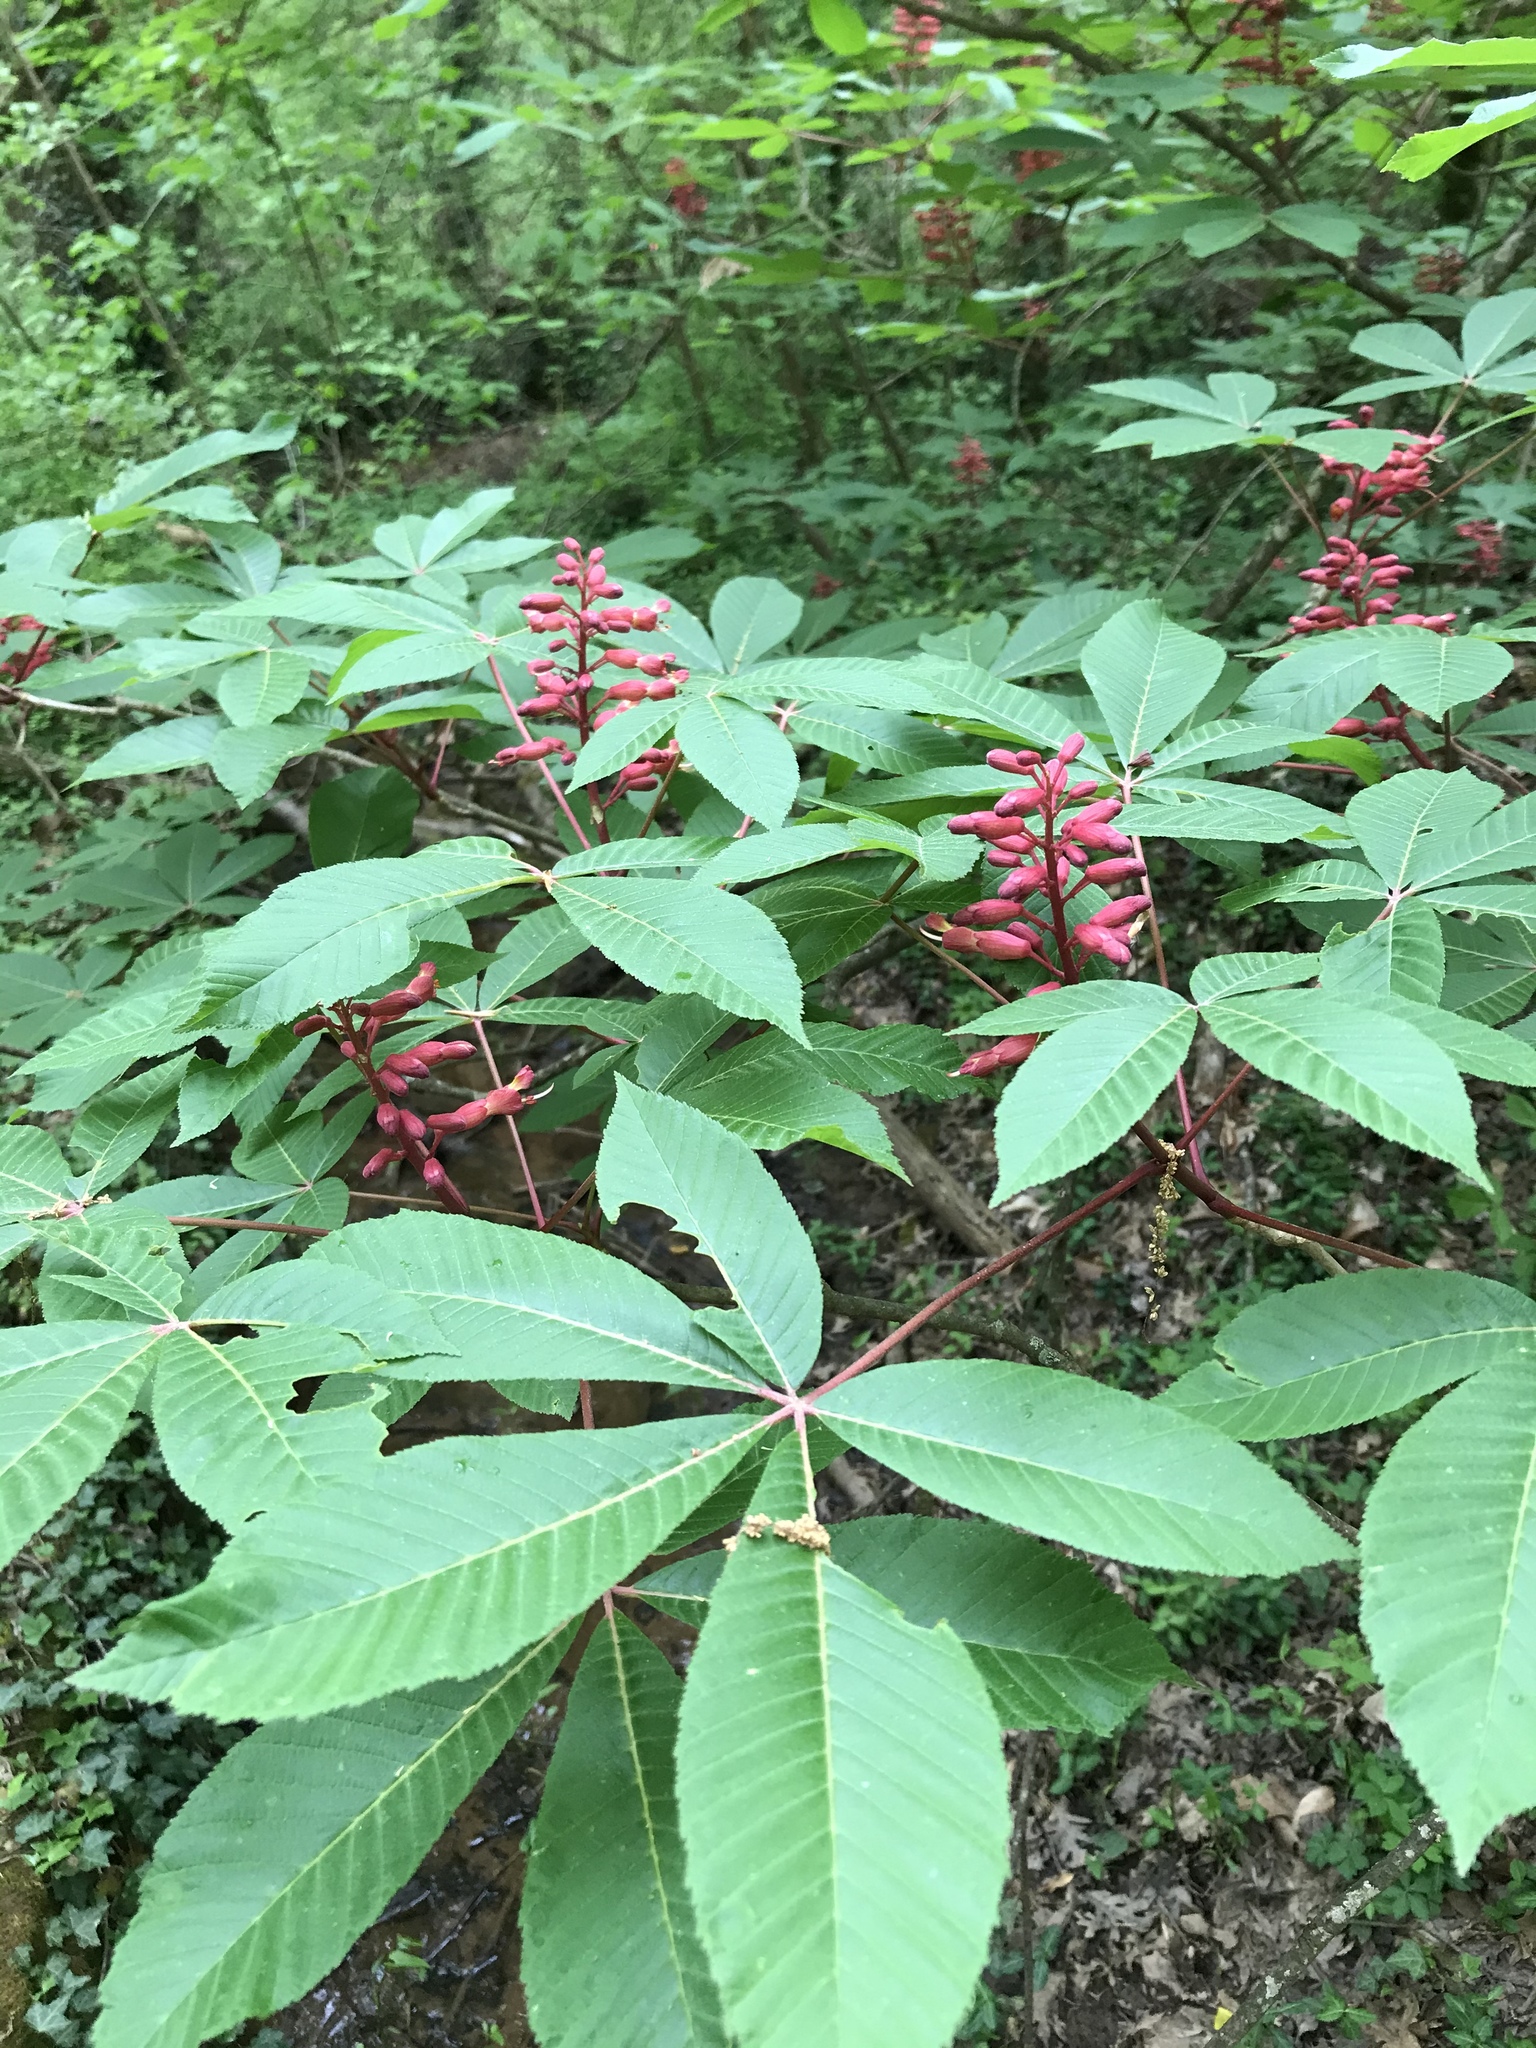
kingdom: Plantae
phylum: Tracheophyta
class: Magnoliopsida
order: Sapindales
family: Sapindaceae
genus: Aesculus
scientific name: Aesculus pavia
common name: Red buckeye
